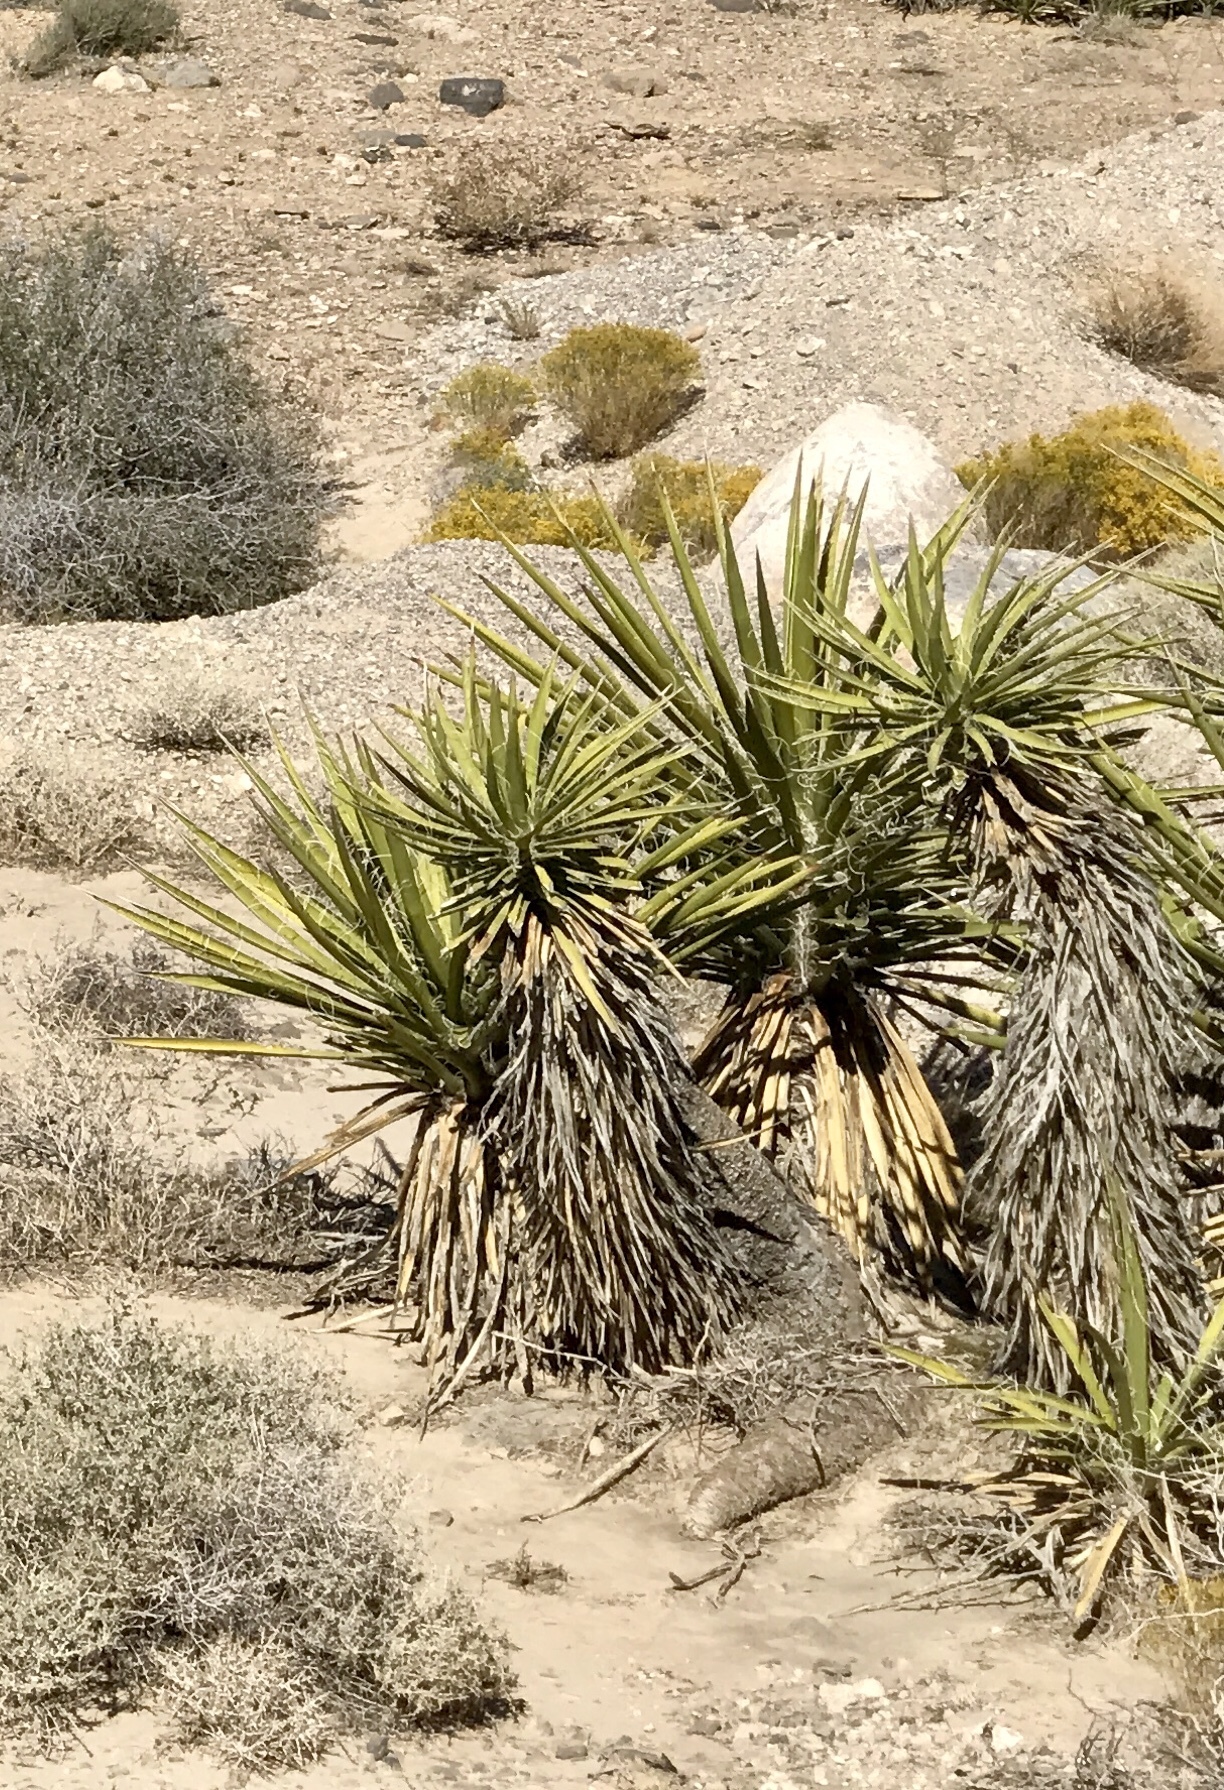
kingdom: Plantae
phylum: Tracheophyta
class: Liliopsida
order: Asparagales
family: Asparagaceae
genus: Yucca
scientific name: Yucca schidigera
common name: Mojave yucca
